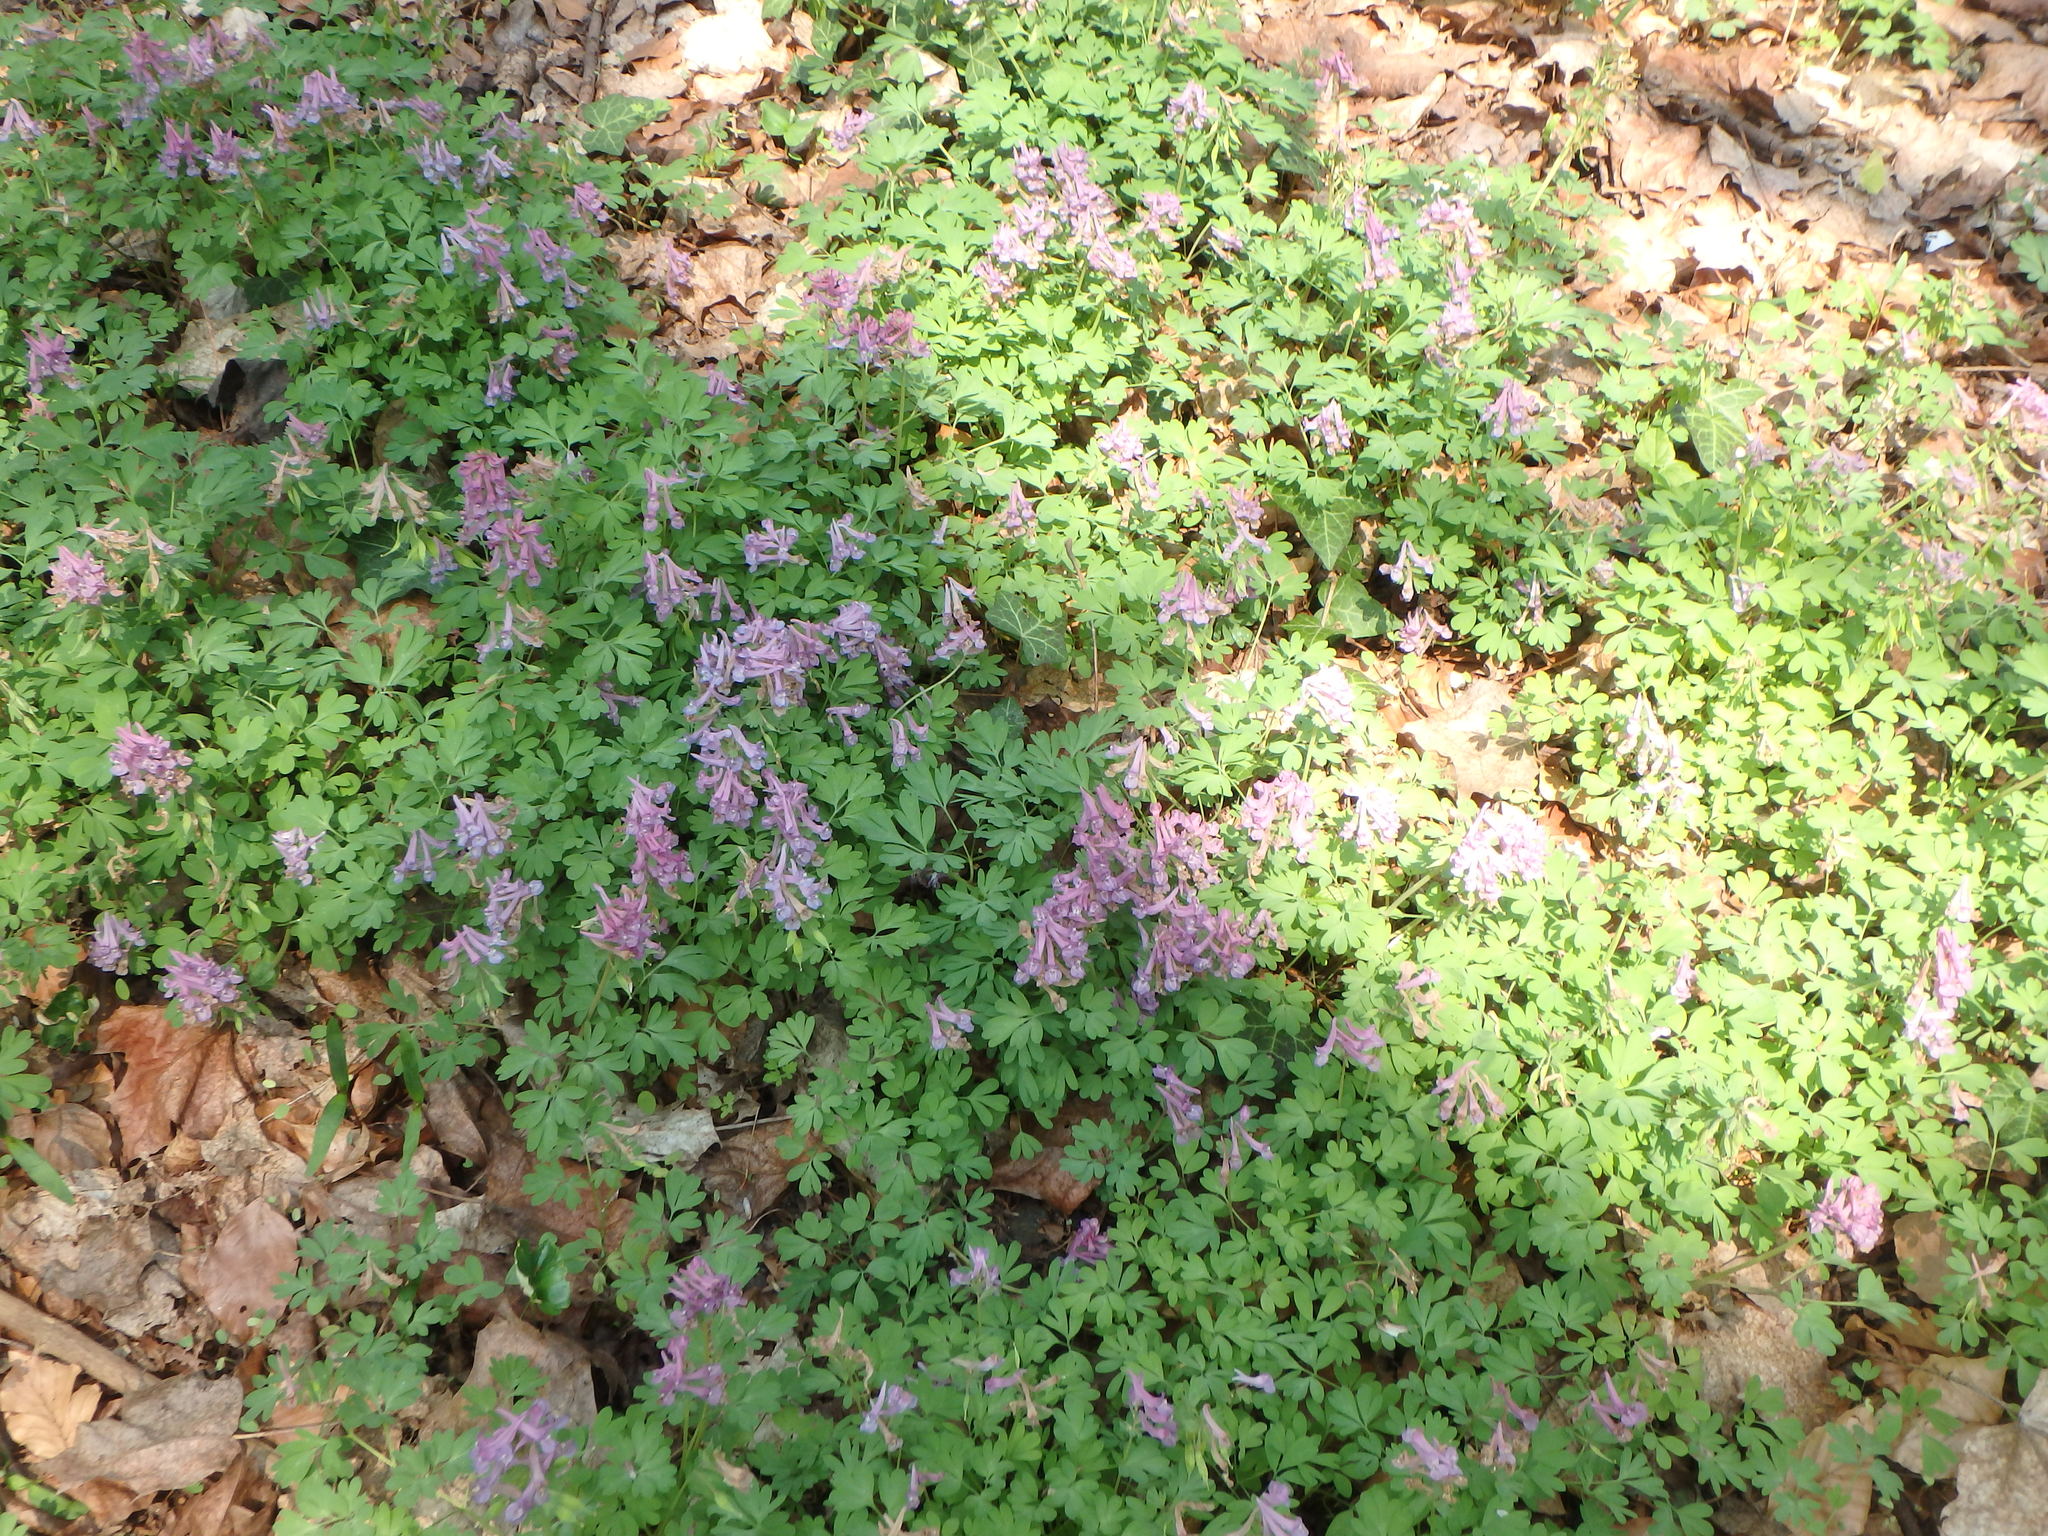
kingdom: Plantae
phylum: Tracheophyta
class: Magnoliopsida
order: Ranunculales
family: Papaveraceae
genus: Corydalis
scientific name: Corydalis solida
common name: Bird-in-a-bush
